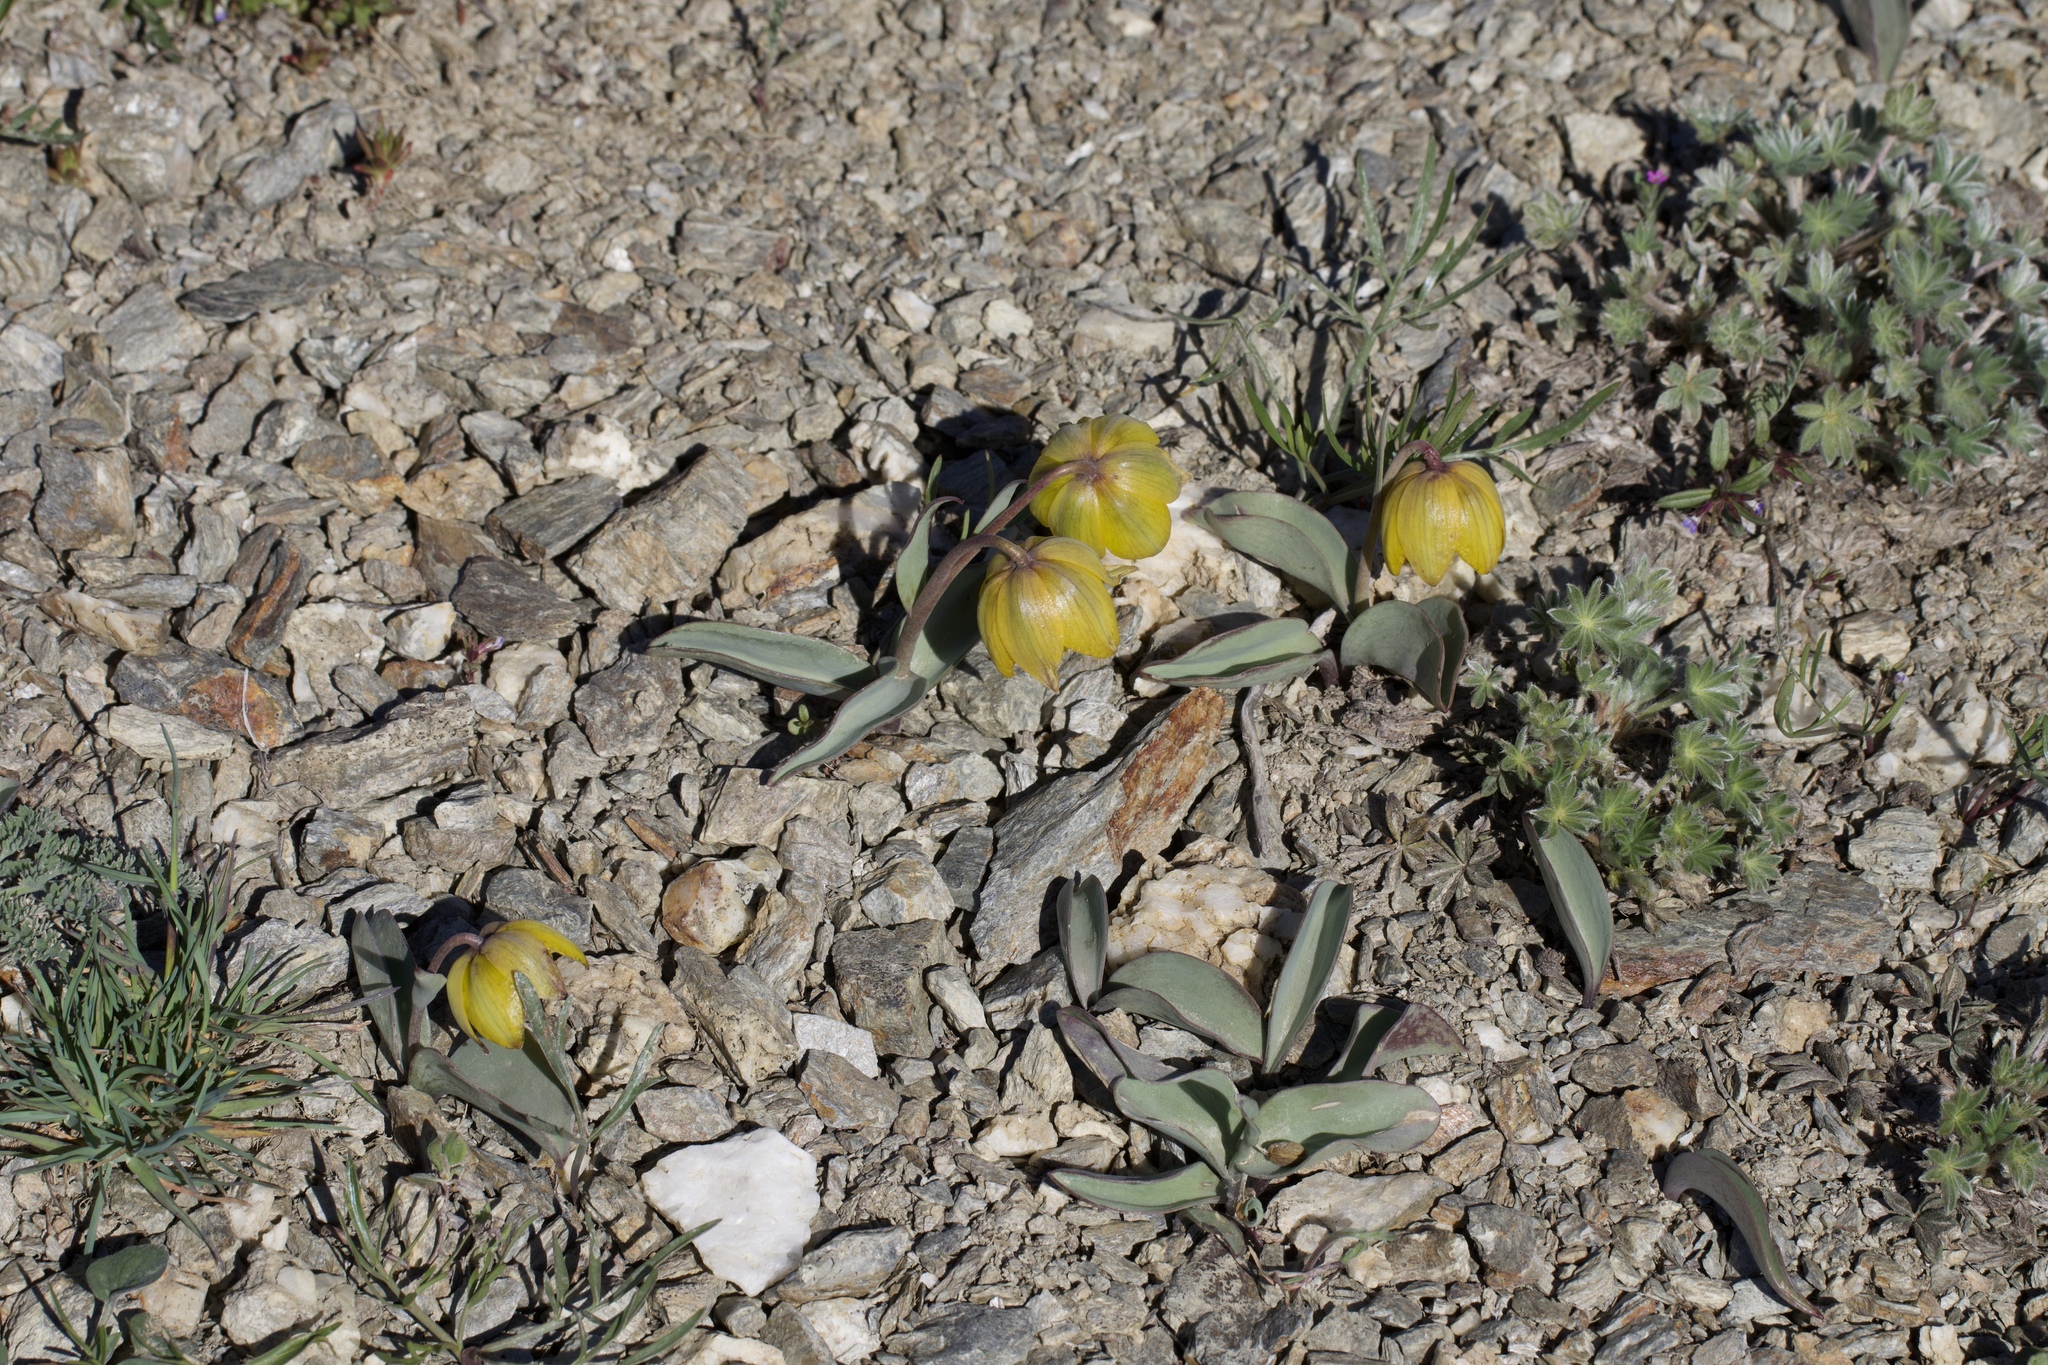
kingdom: Plantae
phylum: Tracheophyta
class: Liliopsida
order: Liliales
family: Liliaceae
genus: Fritillaria
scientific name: Fritillaria glauca
